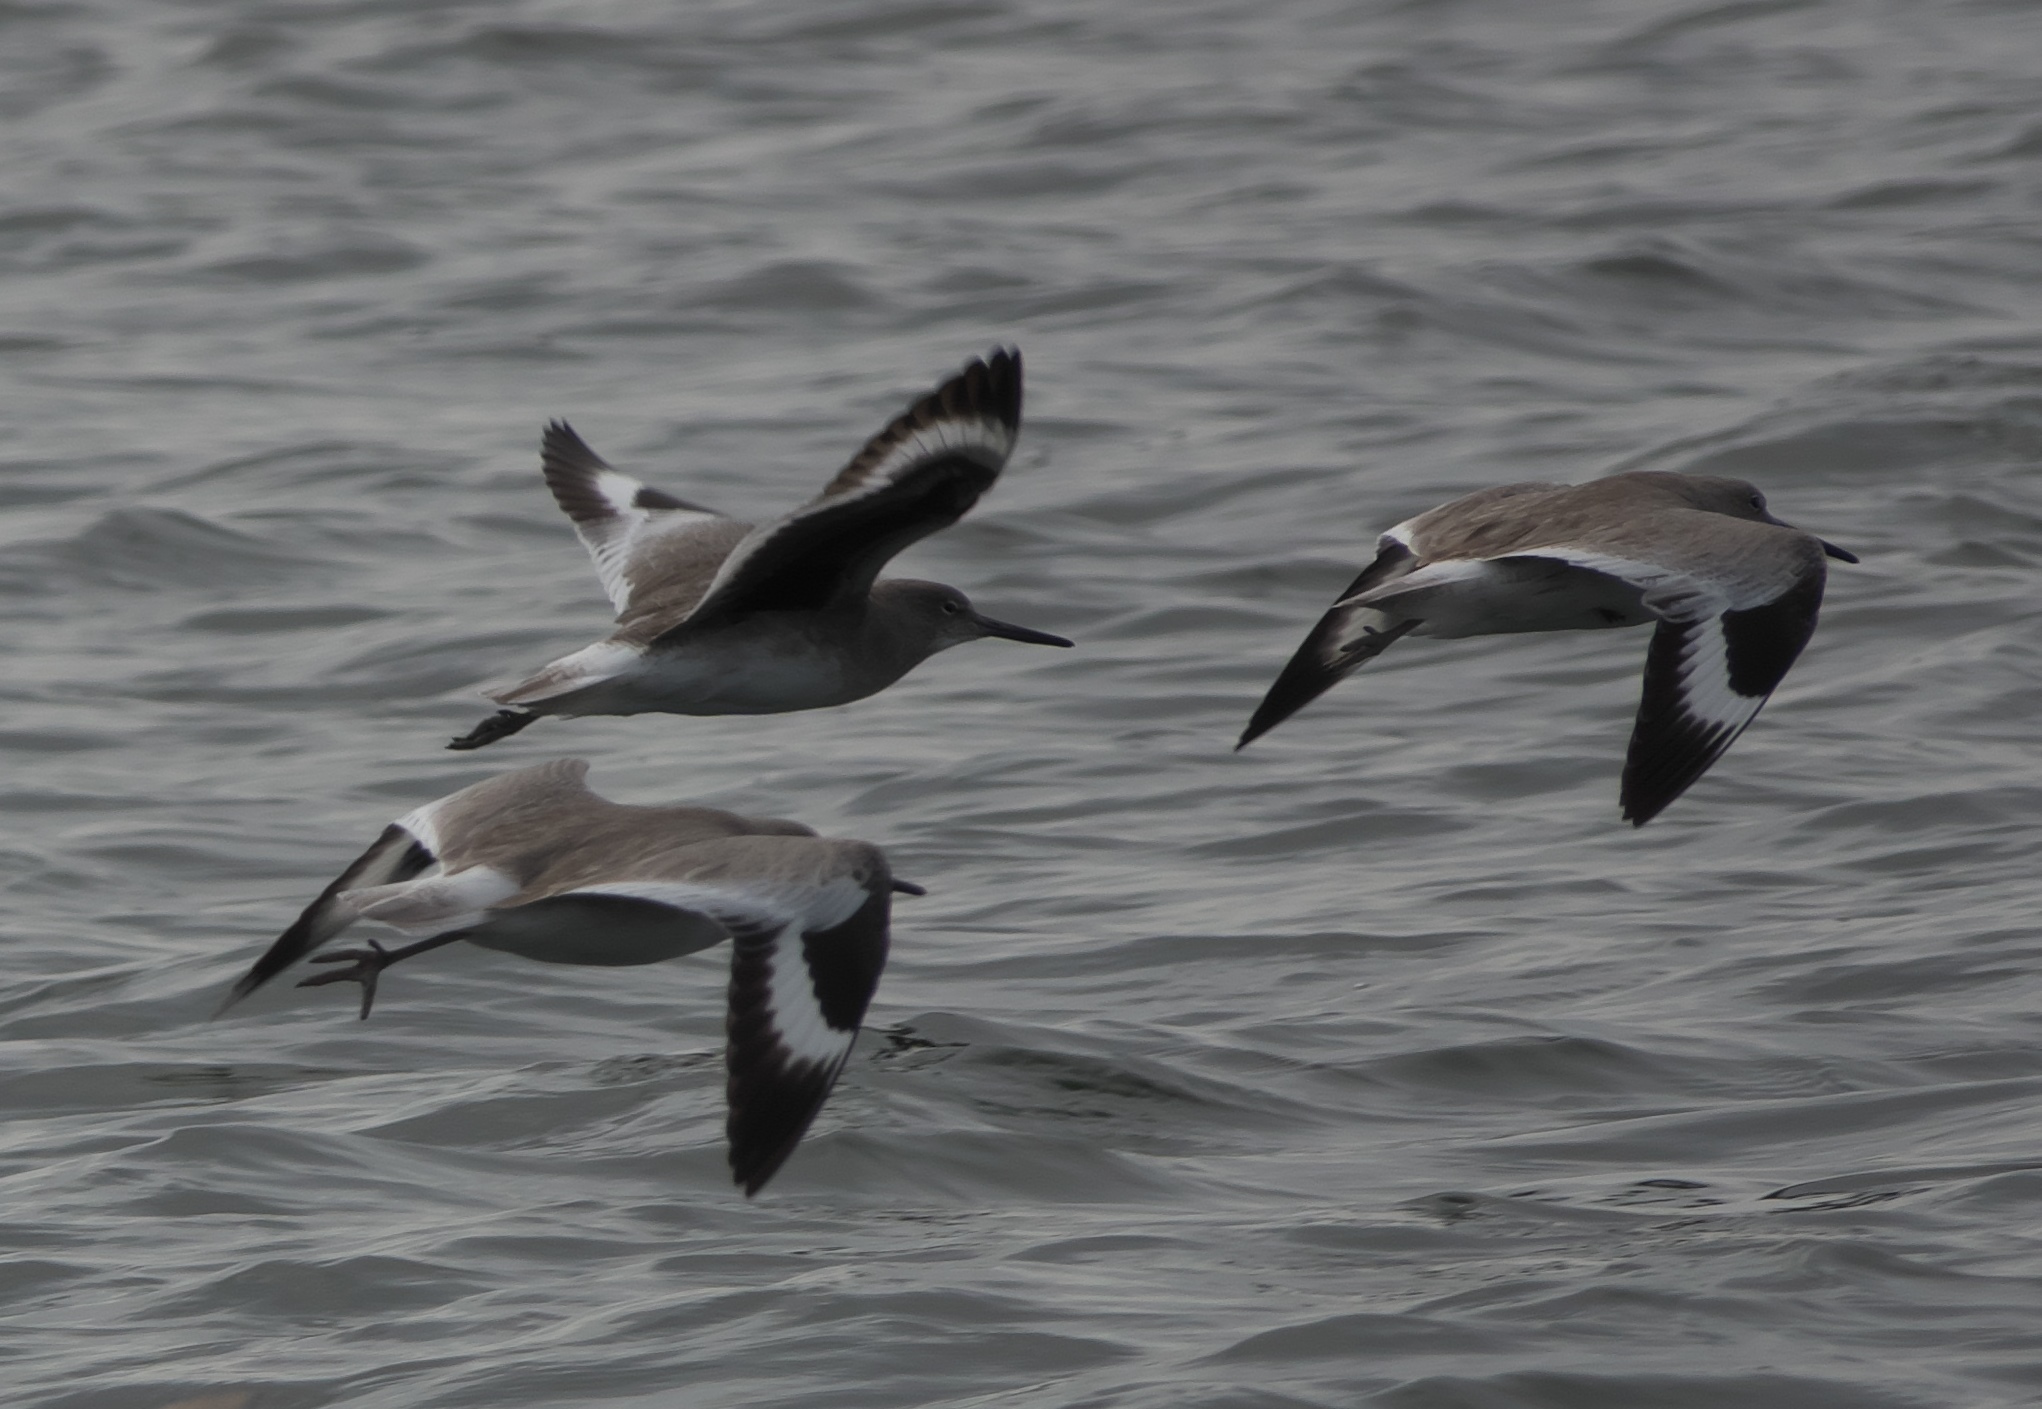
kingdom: Animalia
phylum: Chordata
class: Aves
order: Charadriiformes
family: Scolopacidae
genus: Tringa
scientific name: Tringa semipalmata
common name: Willet
